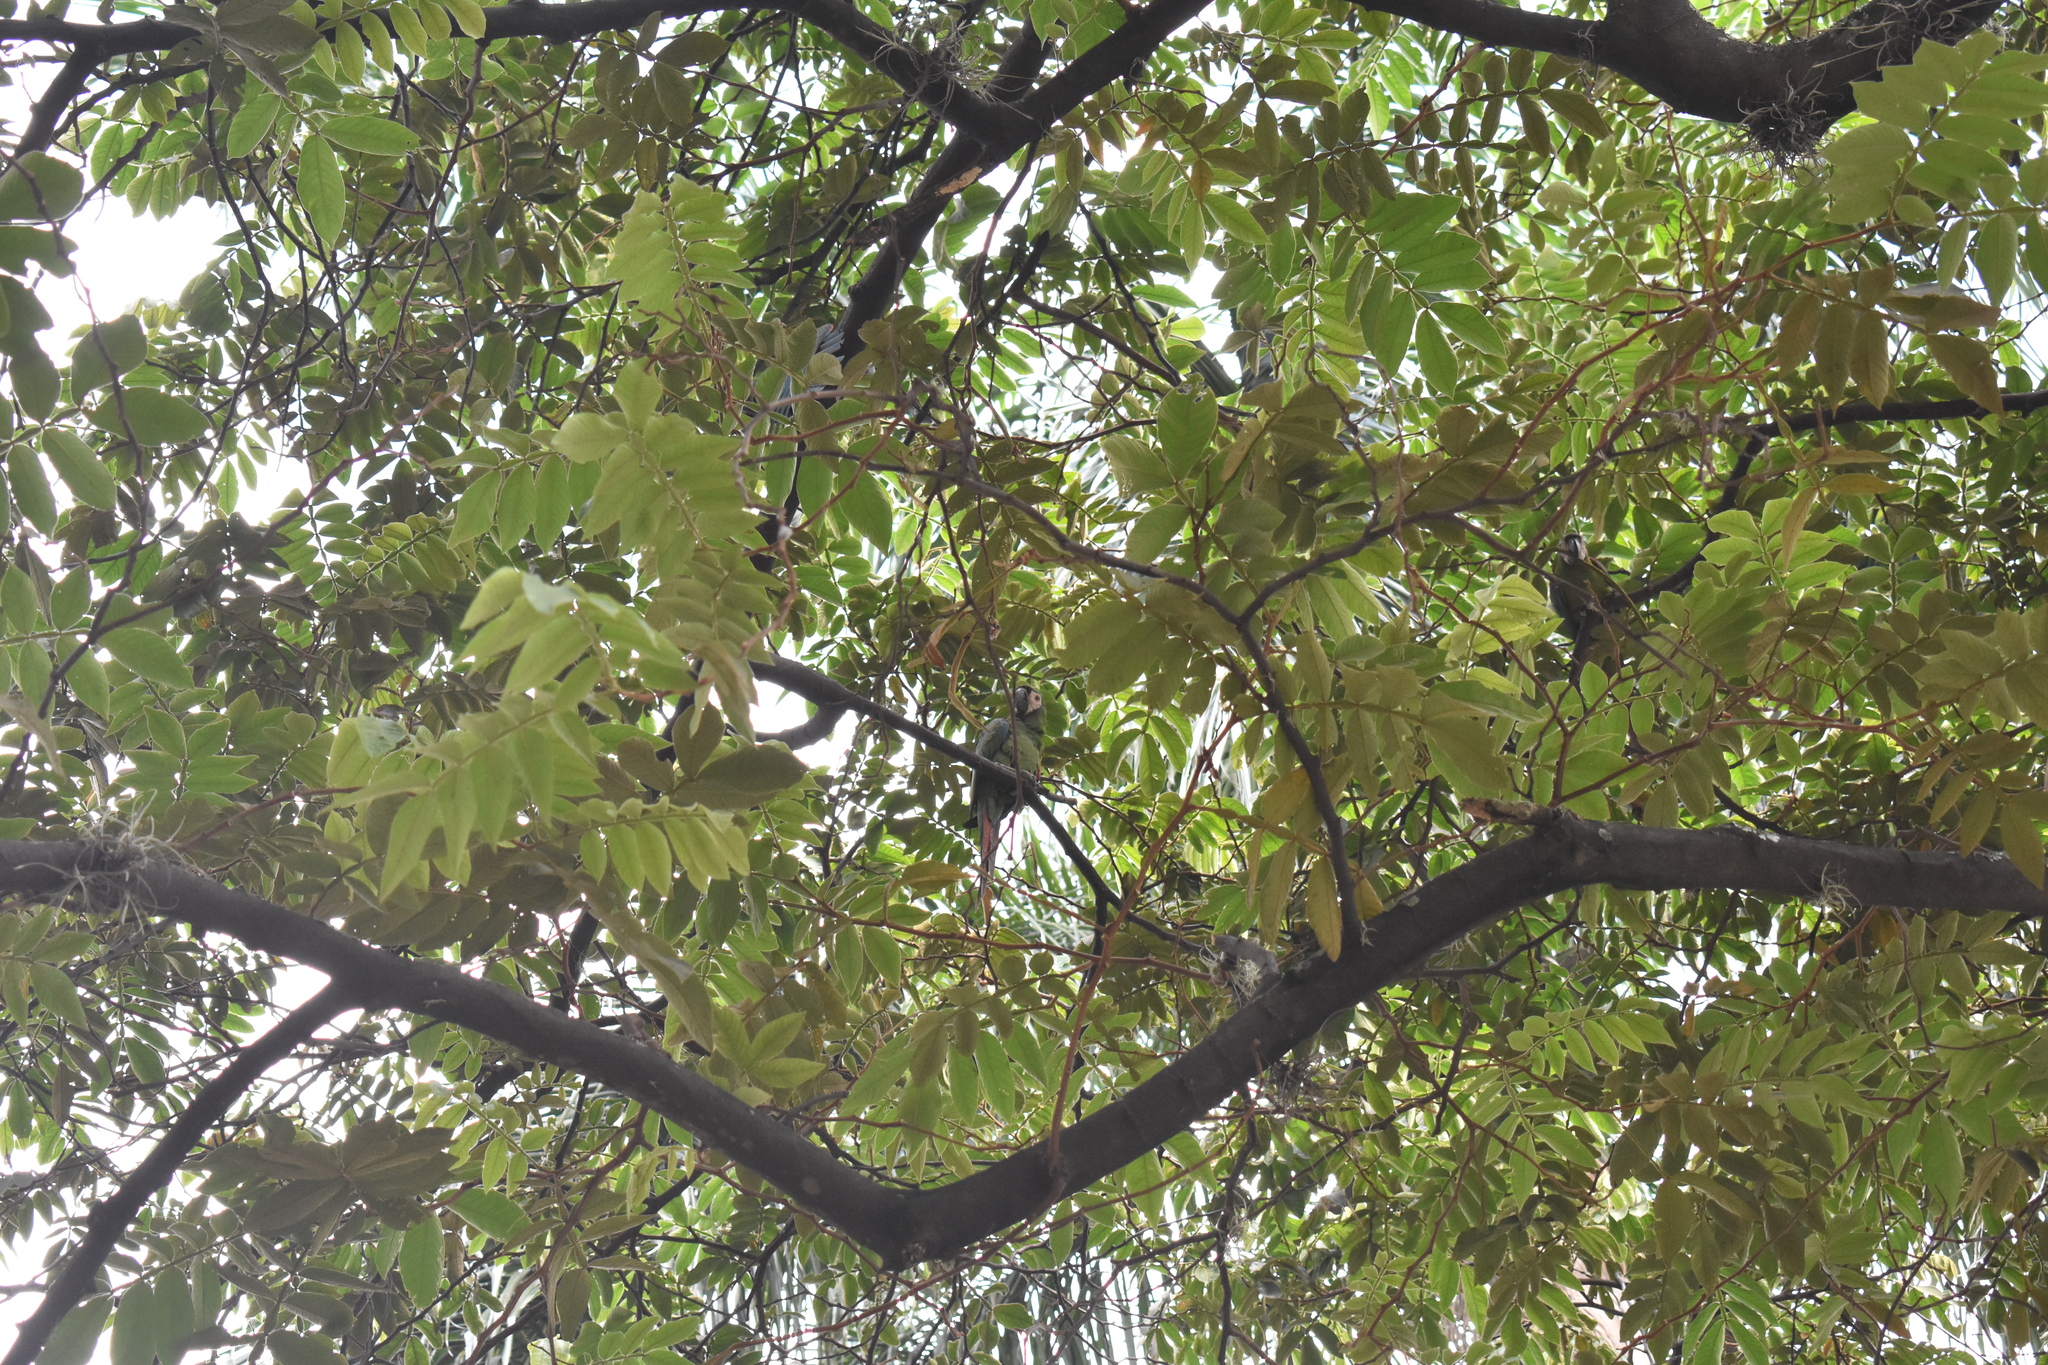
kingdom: Animalia
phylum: Chordata
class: Aves
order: Psittaciformes
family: Psittacidae
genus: Ara
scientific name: Ara severus
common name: Chestnut-fronted macaw
